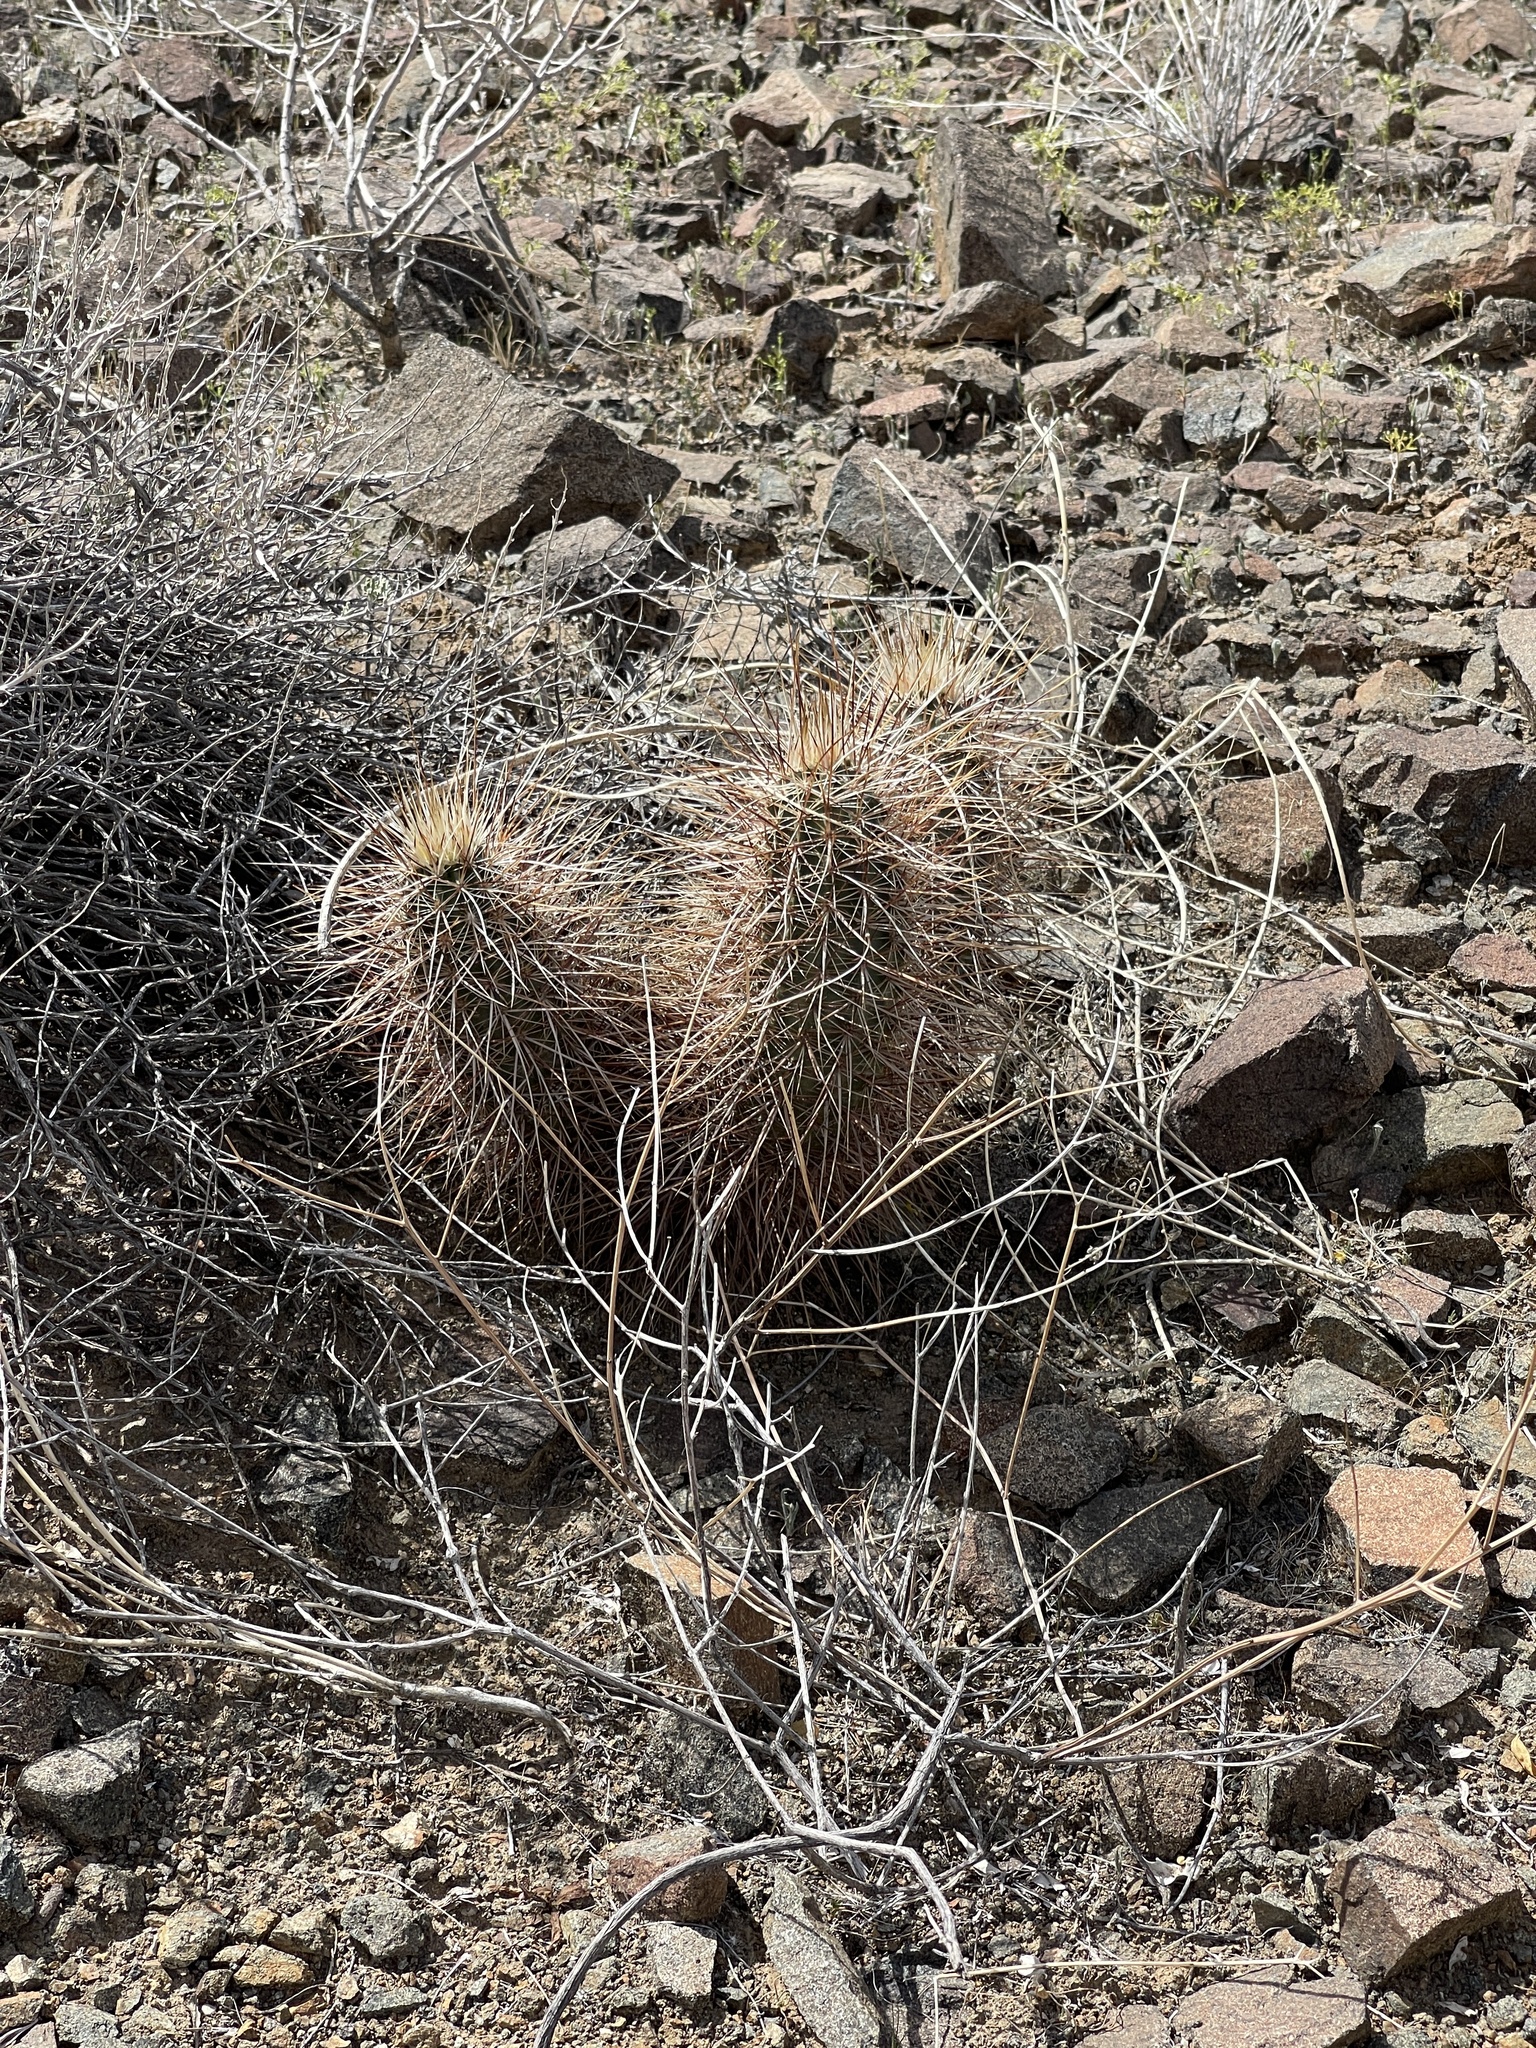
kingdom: Plantae
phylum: Tracheophyta
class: Magnoliopsida
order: Caryophyllales
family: Cactaceae
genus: Echinocereus
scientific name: Echinocereus engelmannii
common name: Engelmann's hedgehog cactus
